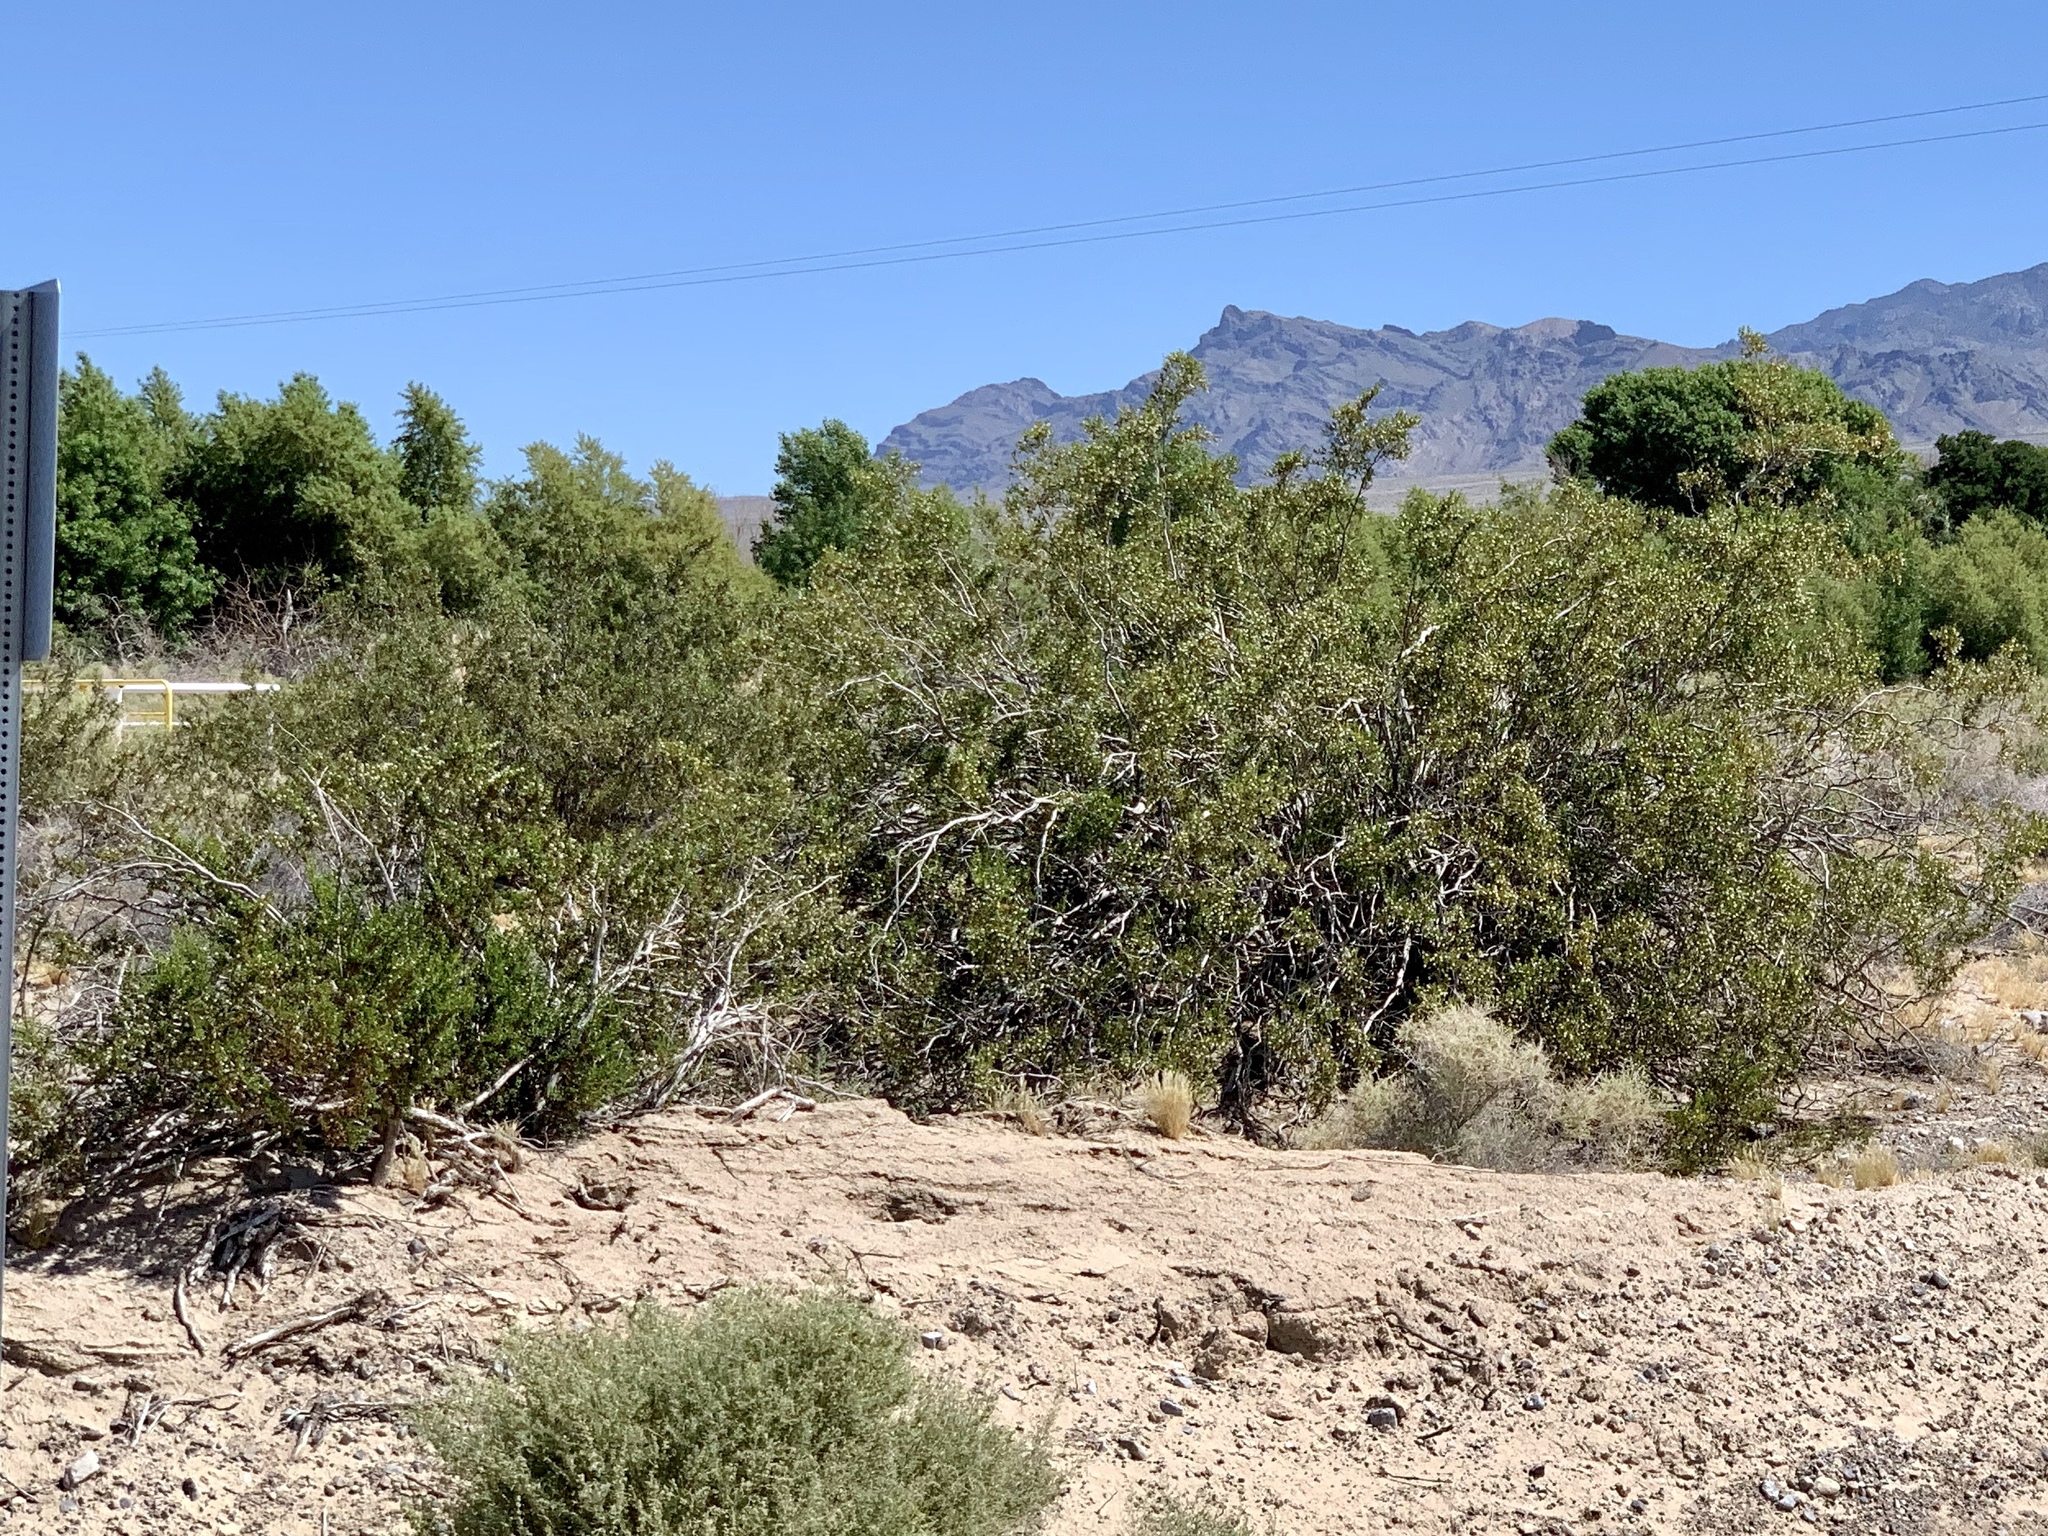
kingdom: Plantae
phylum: Tracheophyta
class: Magnoliopsida
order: Zygophyllales
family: Zygophyllaceae
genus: Larrea
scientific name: Larrea tridentata
